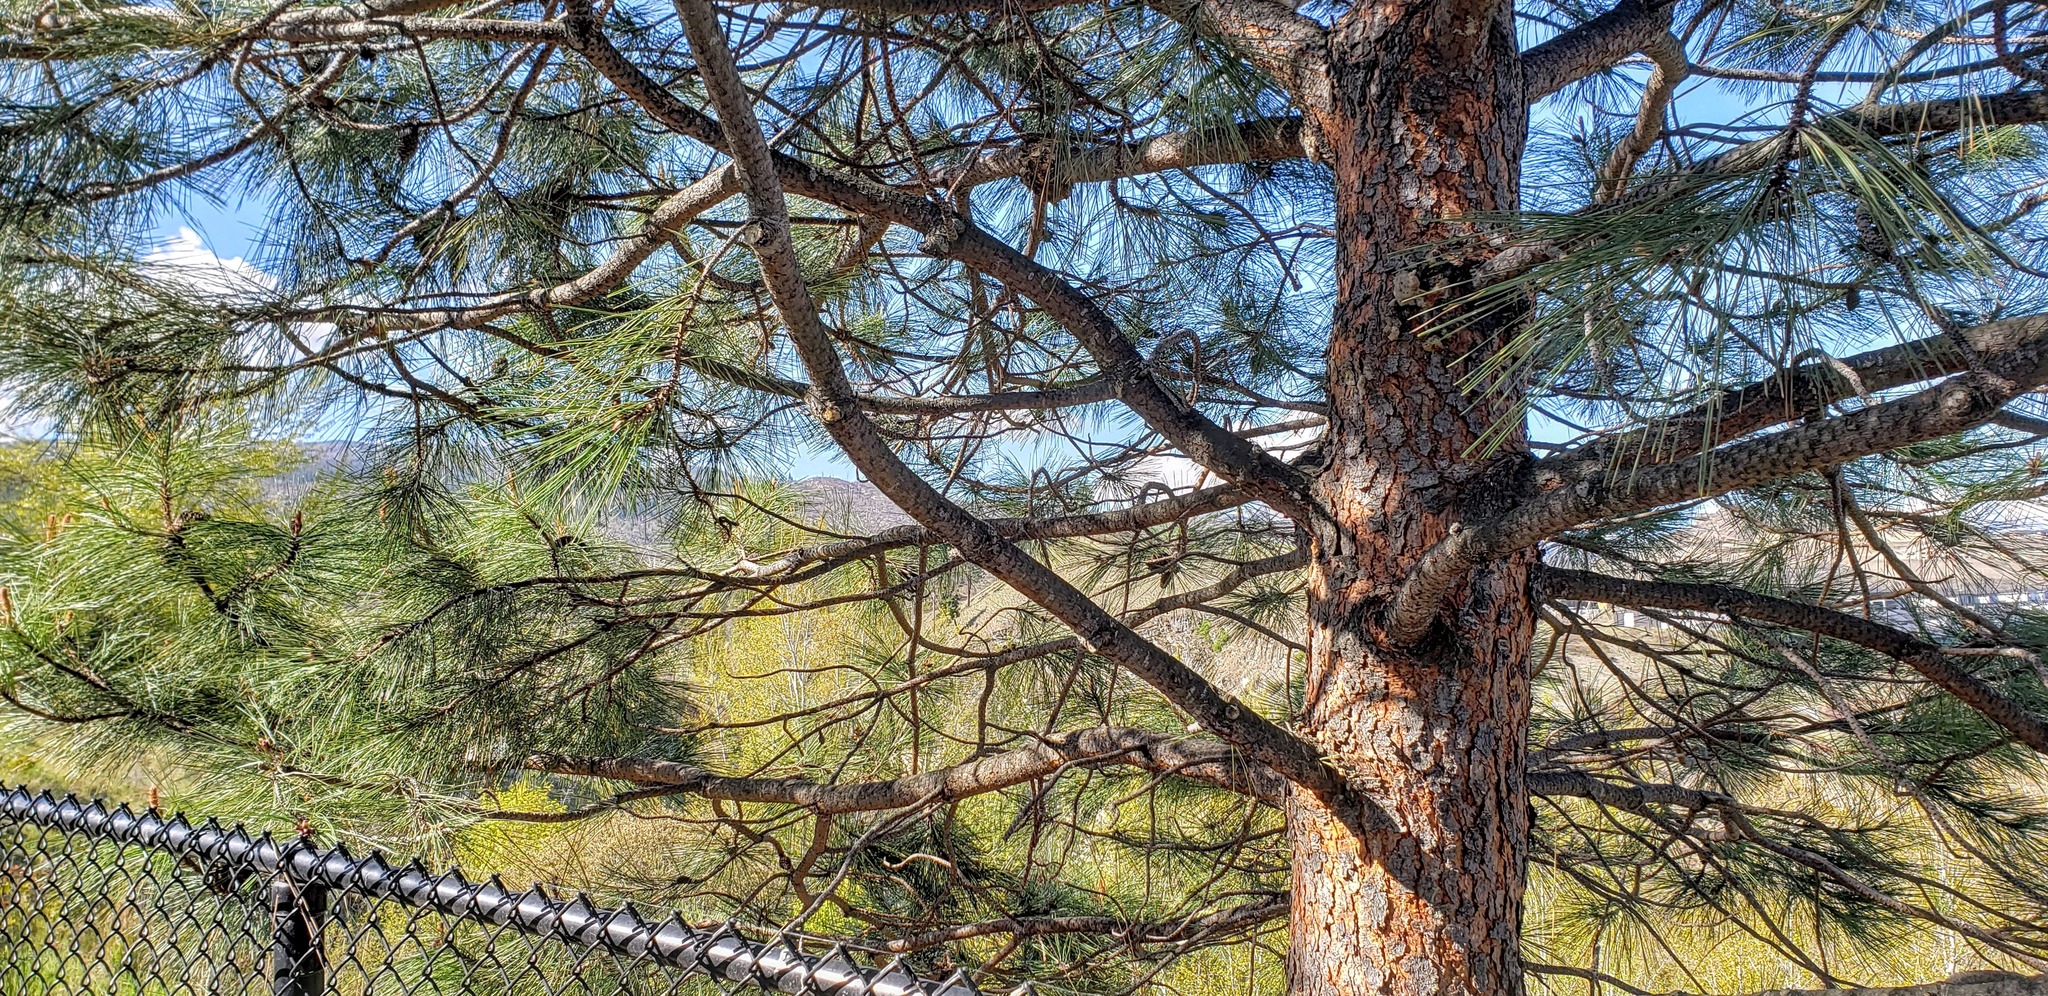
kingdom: Plantae
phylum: Tracheophyta
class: Pinopsida
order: Pinales
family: Pinaceae
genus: Pinus
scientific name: Pinus ponderosa
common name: Western yellow-pine
